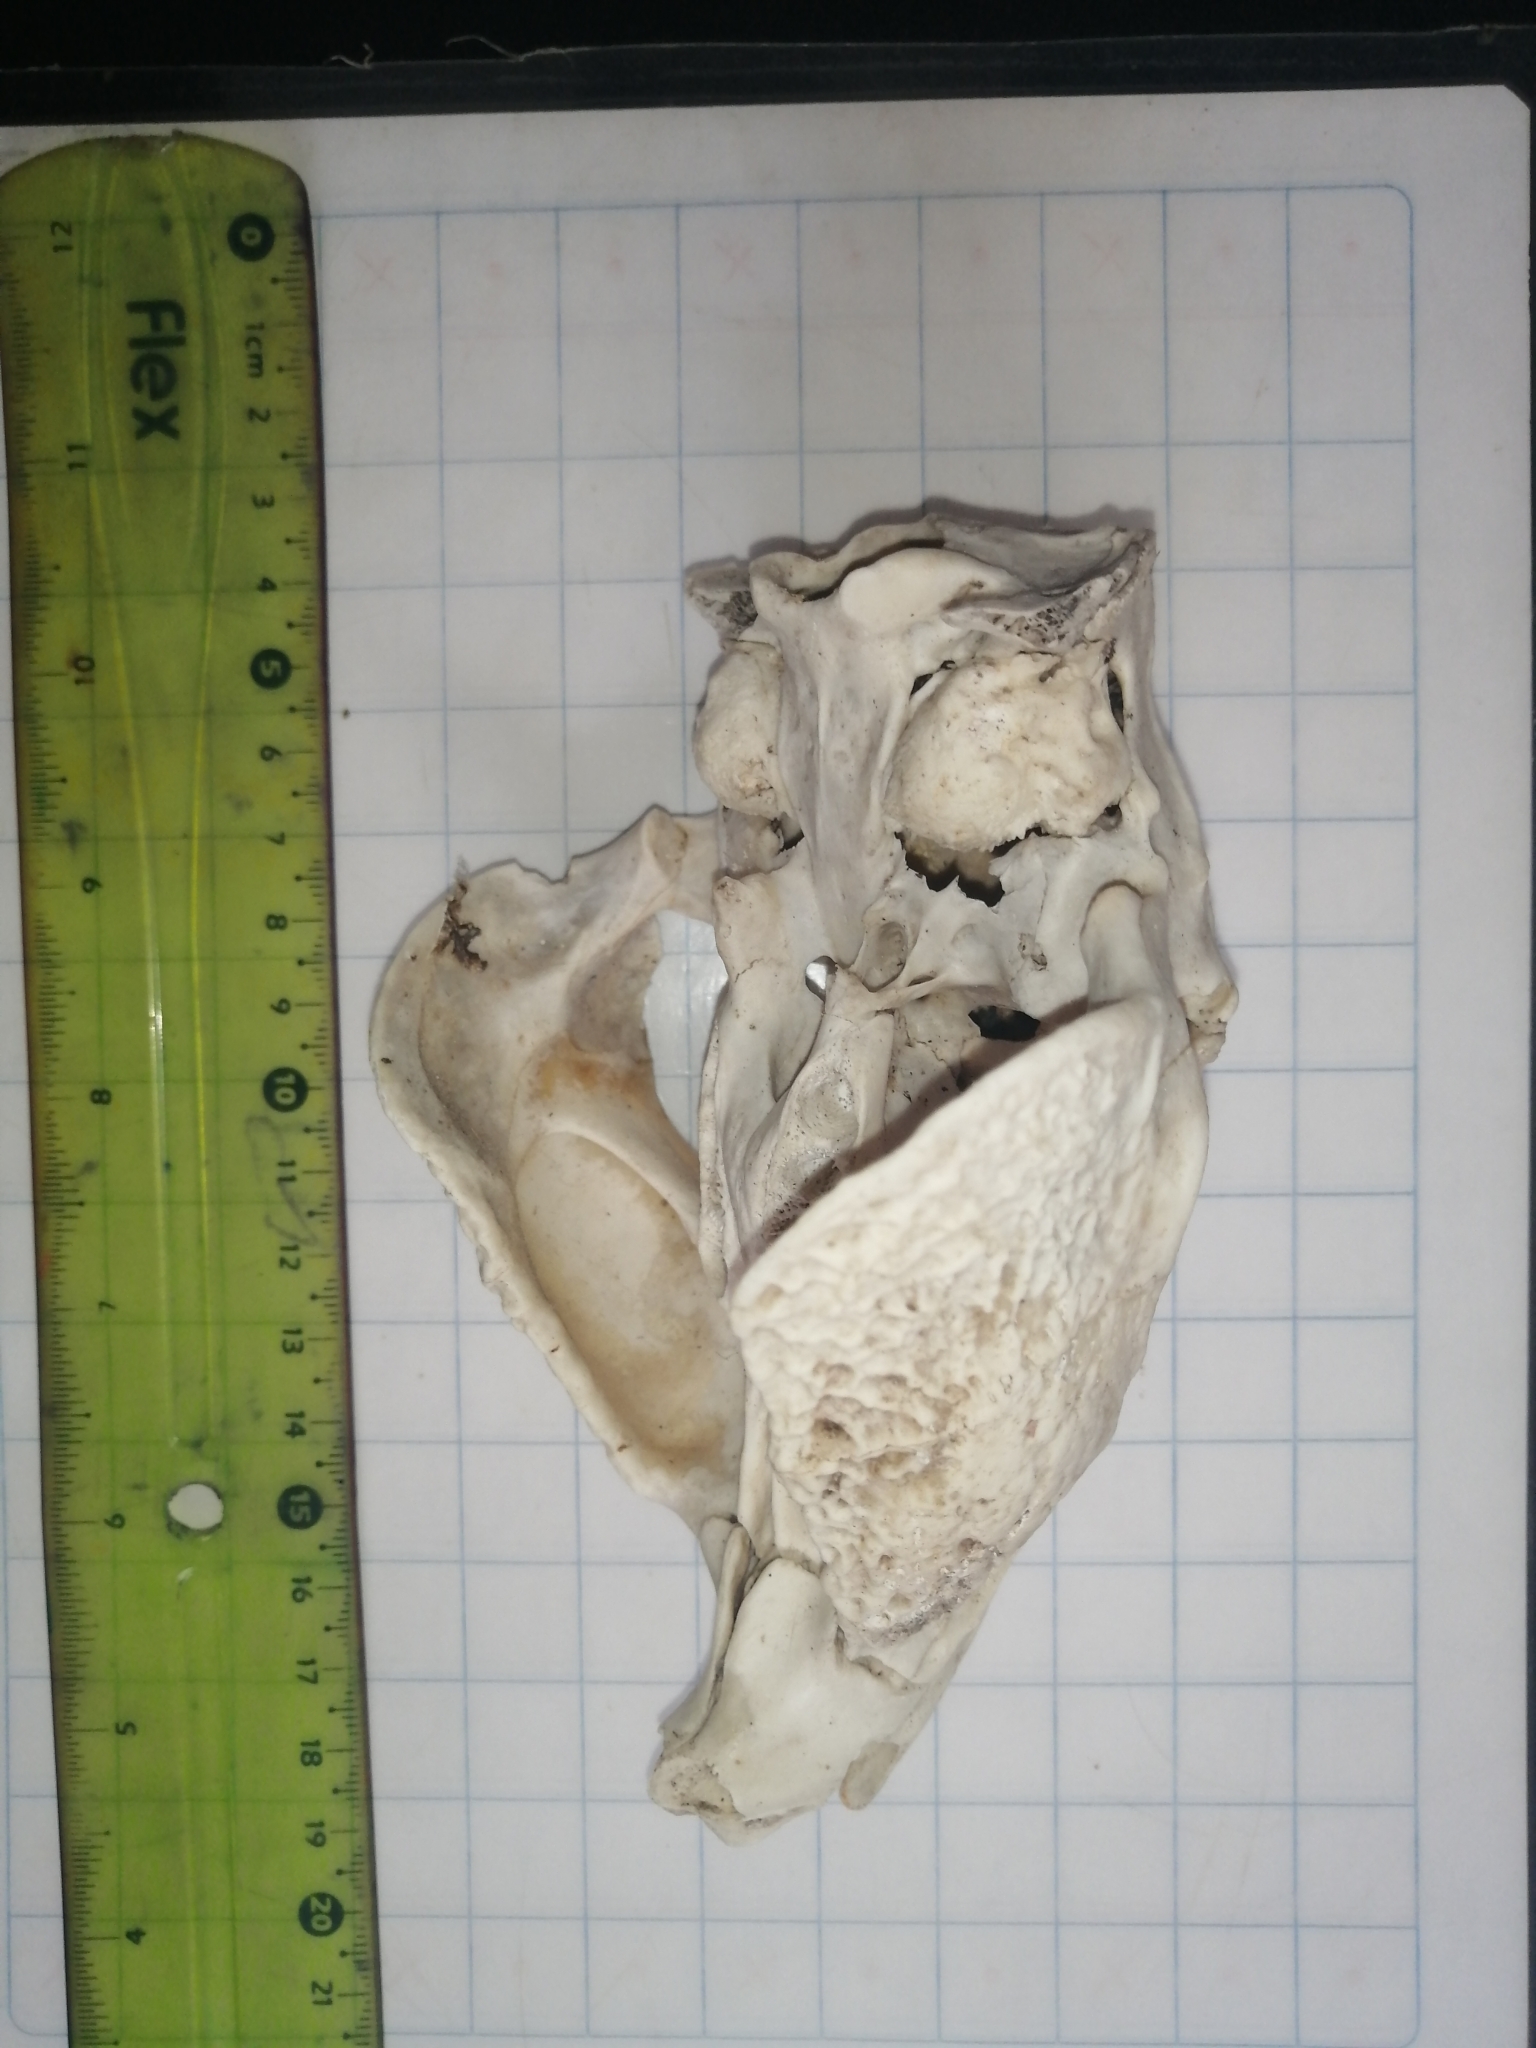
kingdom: Animalia
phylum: Chordata
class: Mammalia
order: Rodentia
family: Cuniculidae
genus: Cuniculus
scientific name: Cuniculus paca
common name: Lowland paca
